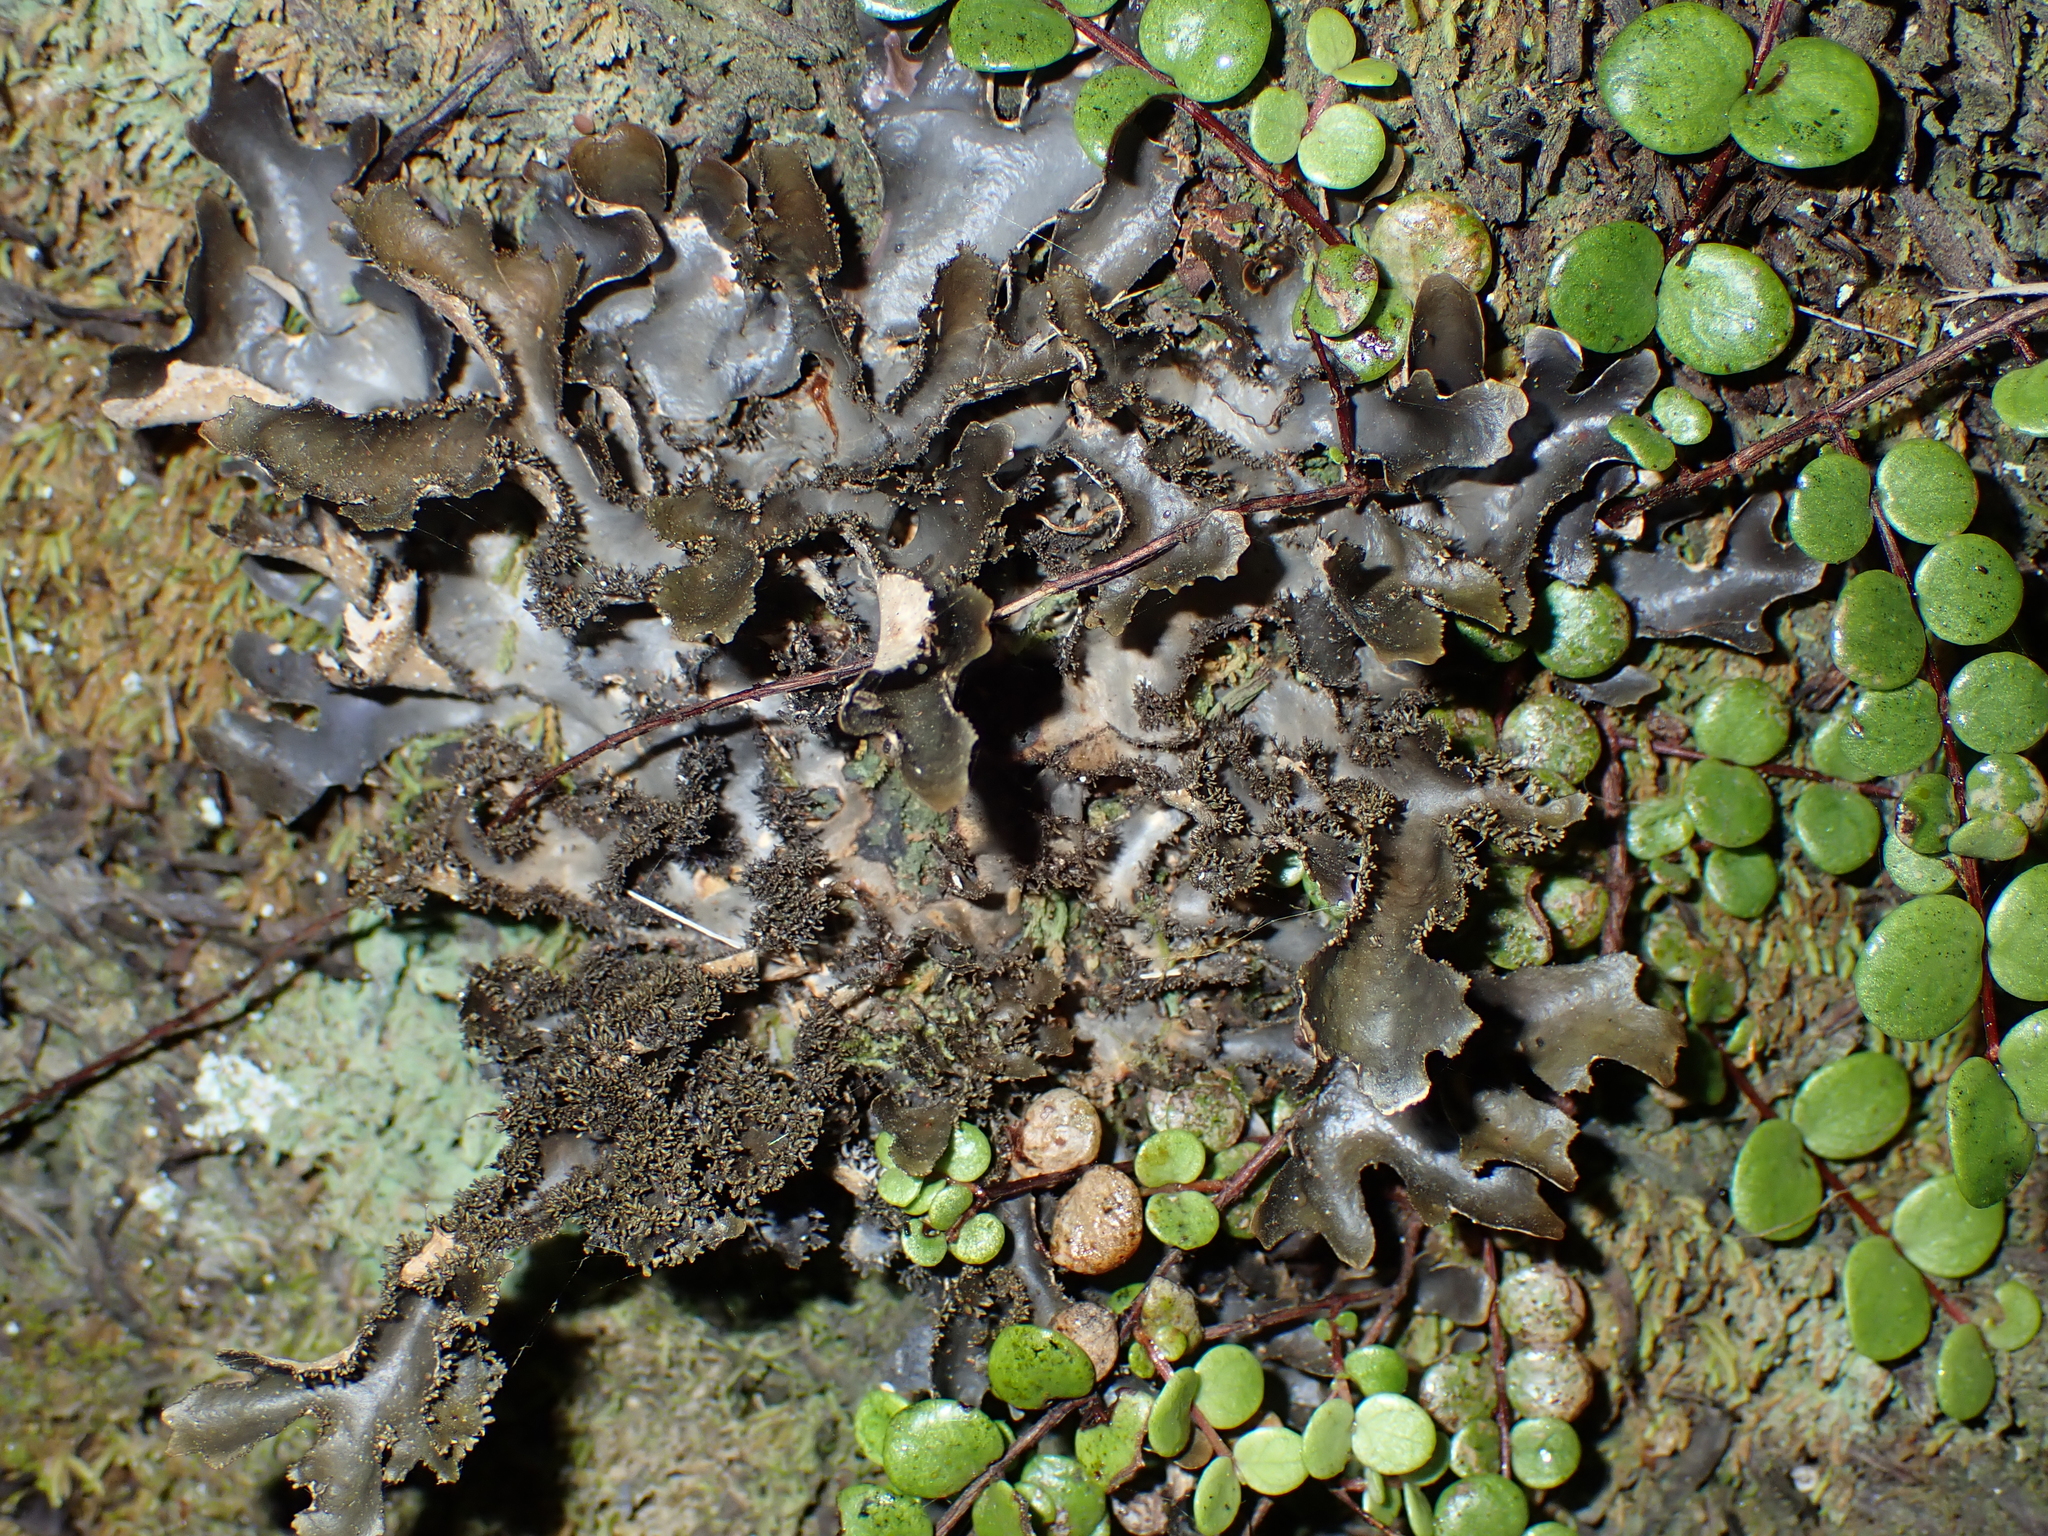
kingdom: Fungi
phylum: Ascomycota
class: Lecanoromycetes
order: Peltigerales
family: Lobariaceae
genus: Pseudocyphellaria
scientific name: Pseudocyphellaria dissimilis
